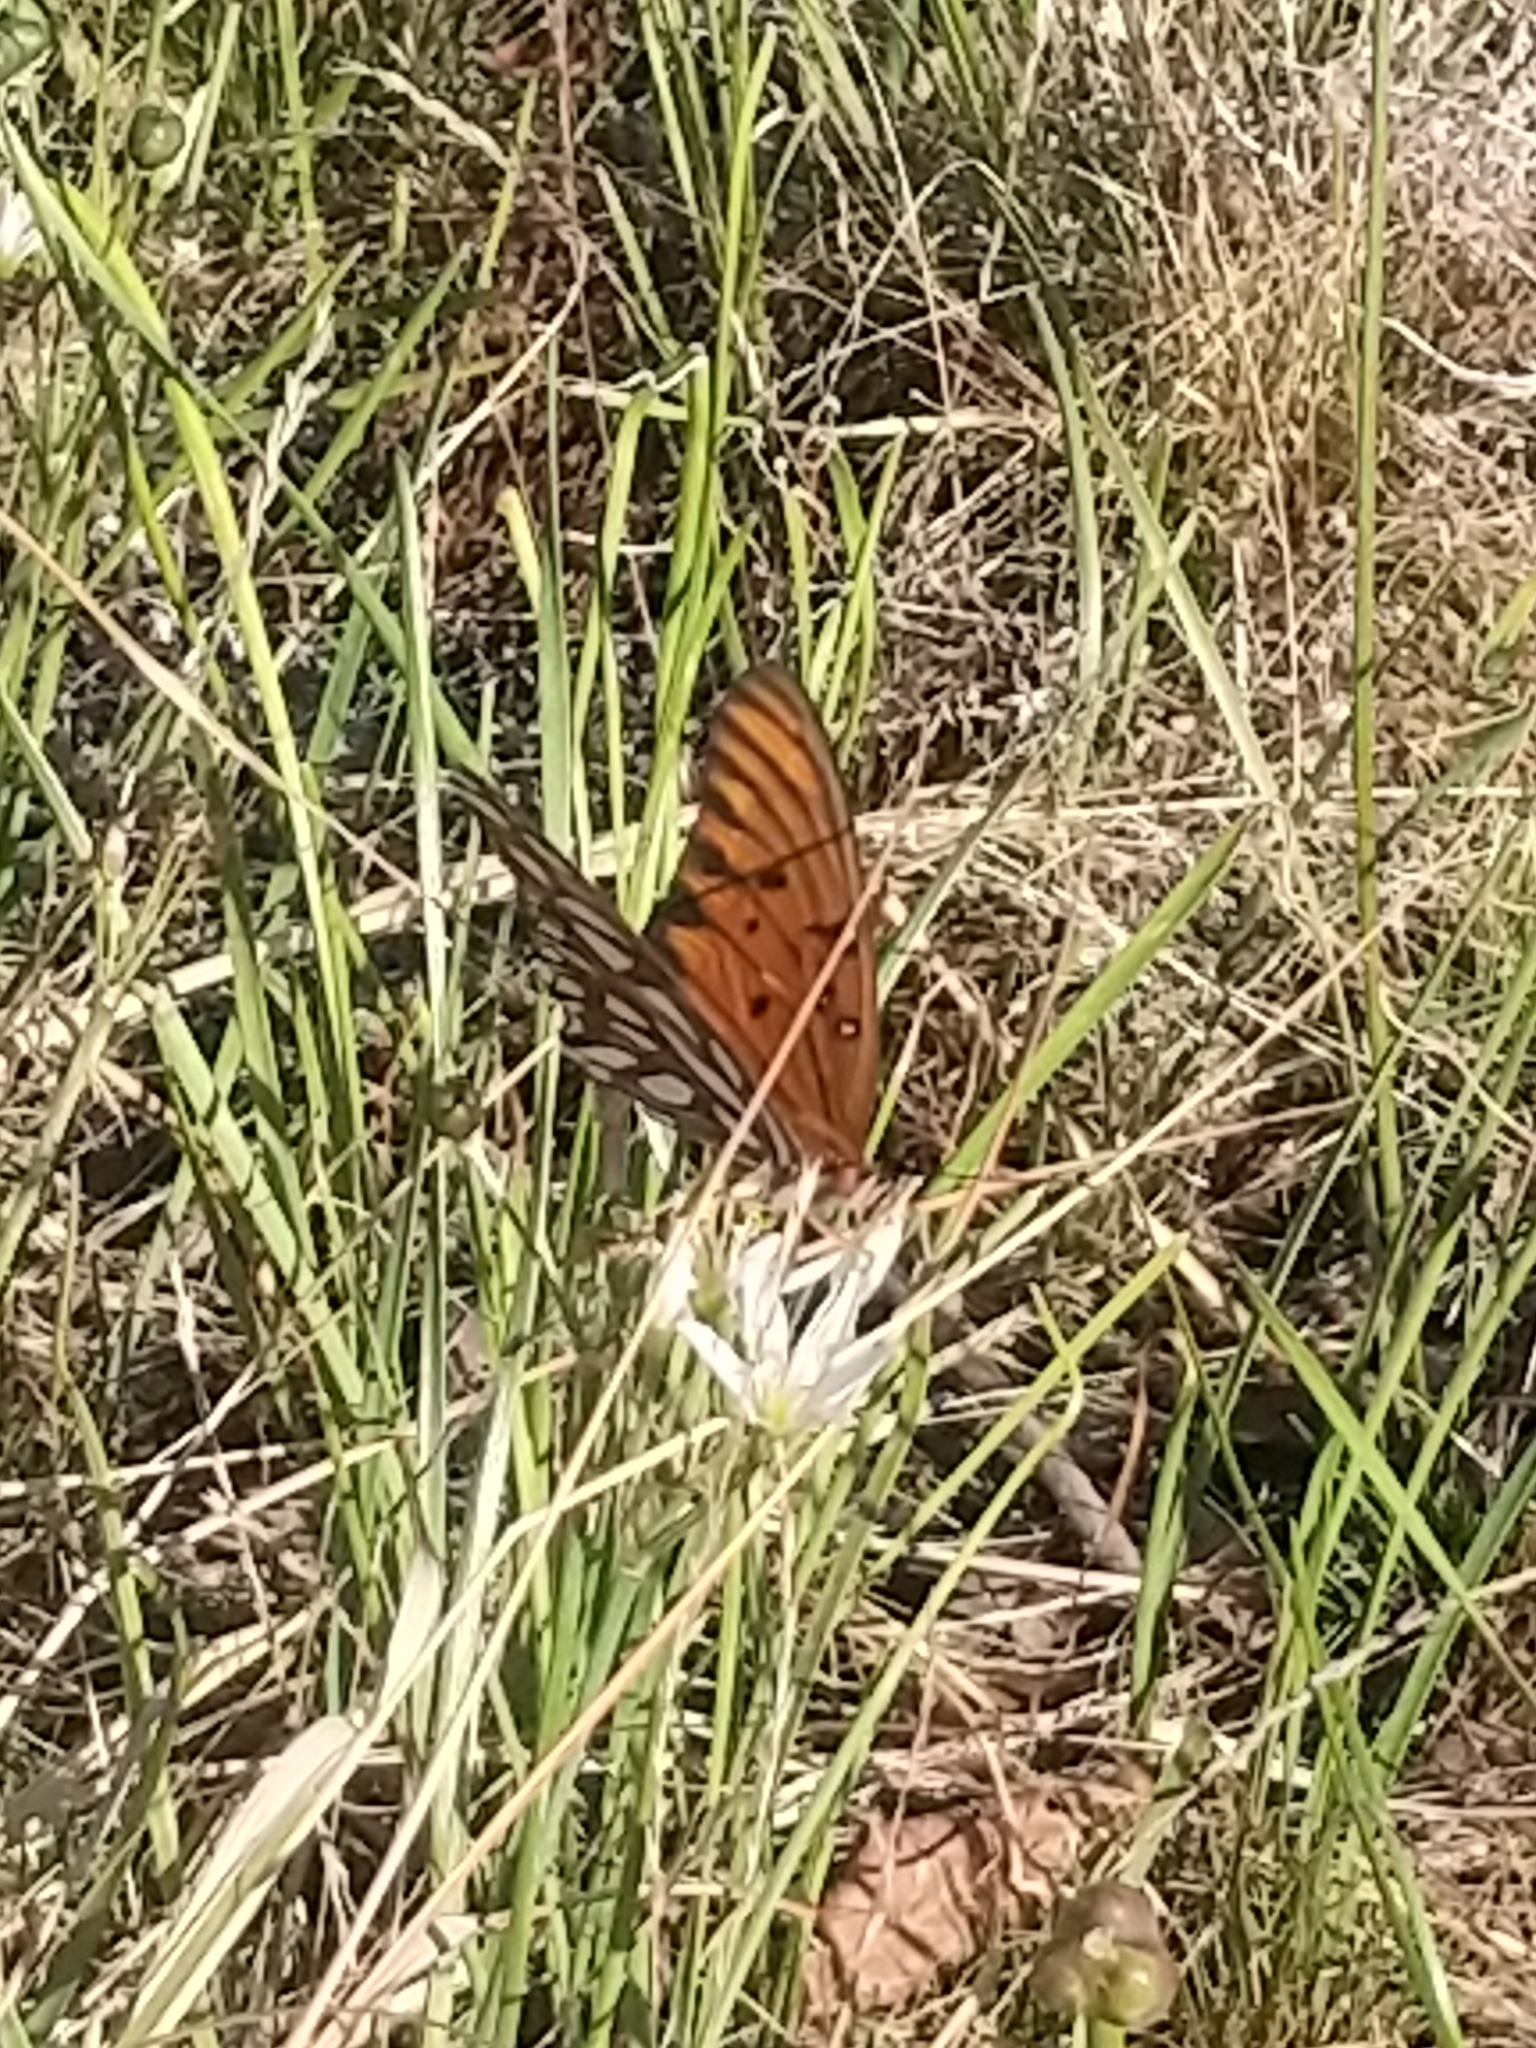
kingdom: Animalia
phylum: Arthropoda
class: Insecta
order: Lepidoptera
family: Nymphalidae
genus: Dione
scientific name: Dione vanillae
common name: Gulf fritillary
